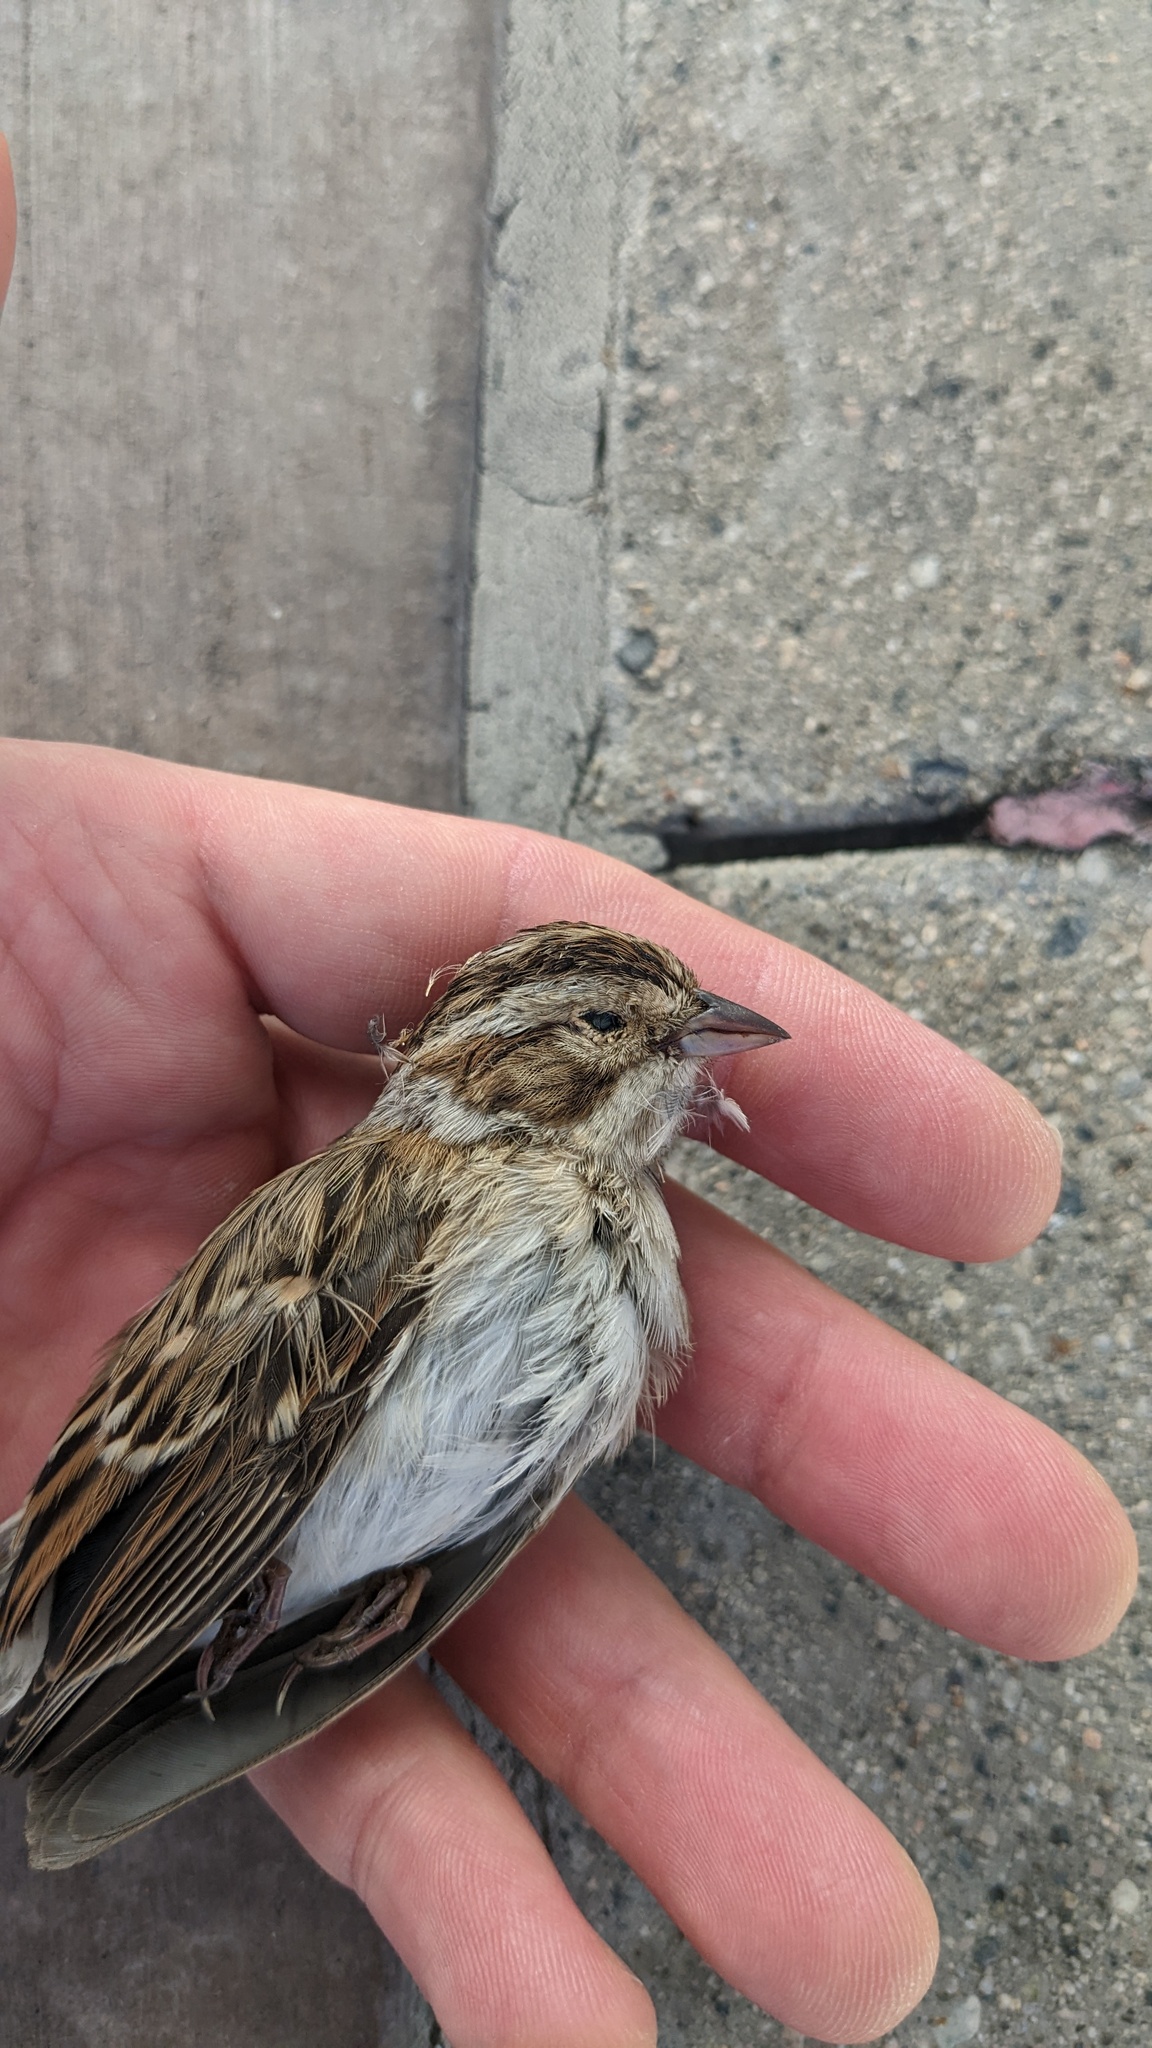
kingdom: Animalia
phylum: Chordata
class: Aves
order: Passeriformes
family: Passerellidae
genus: Spizella
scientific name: Spizella pallida
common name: Clay-colored sparrow
